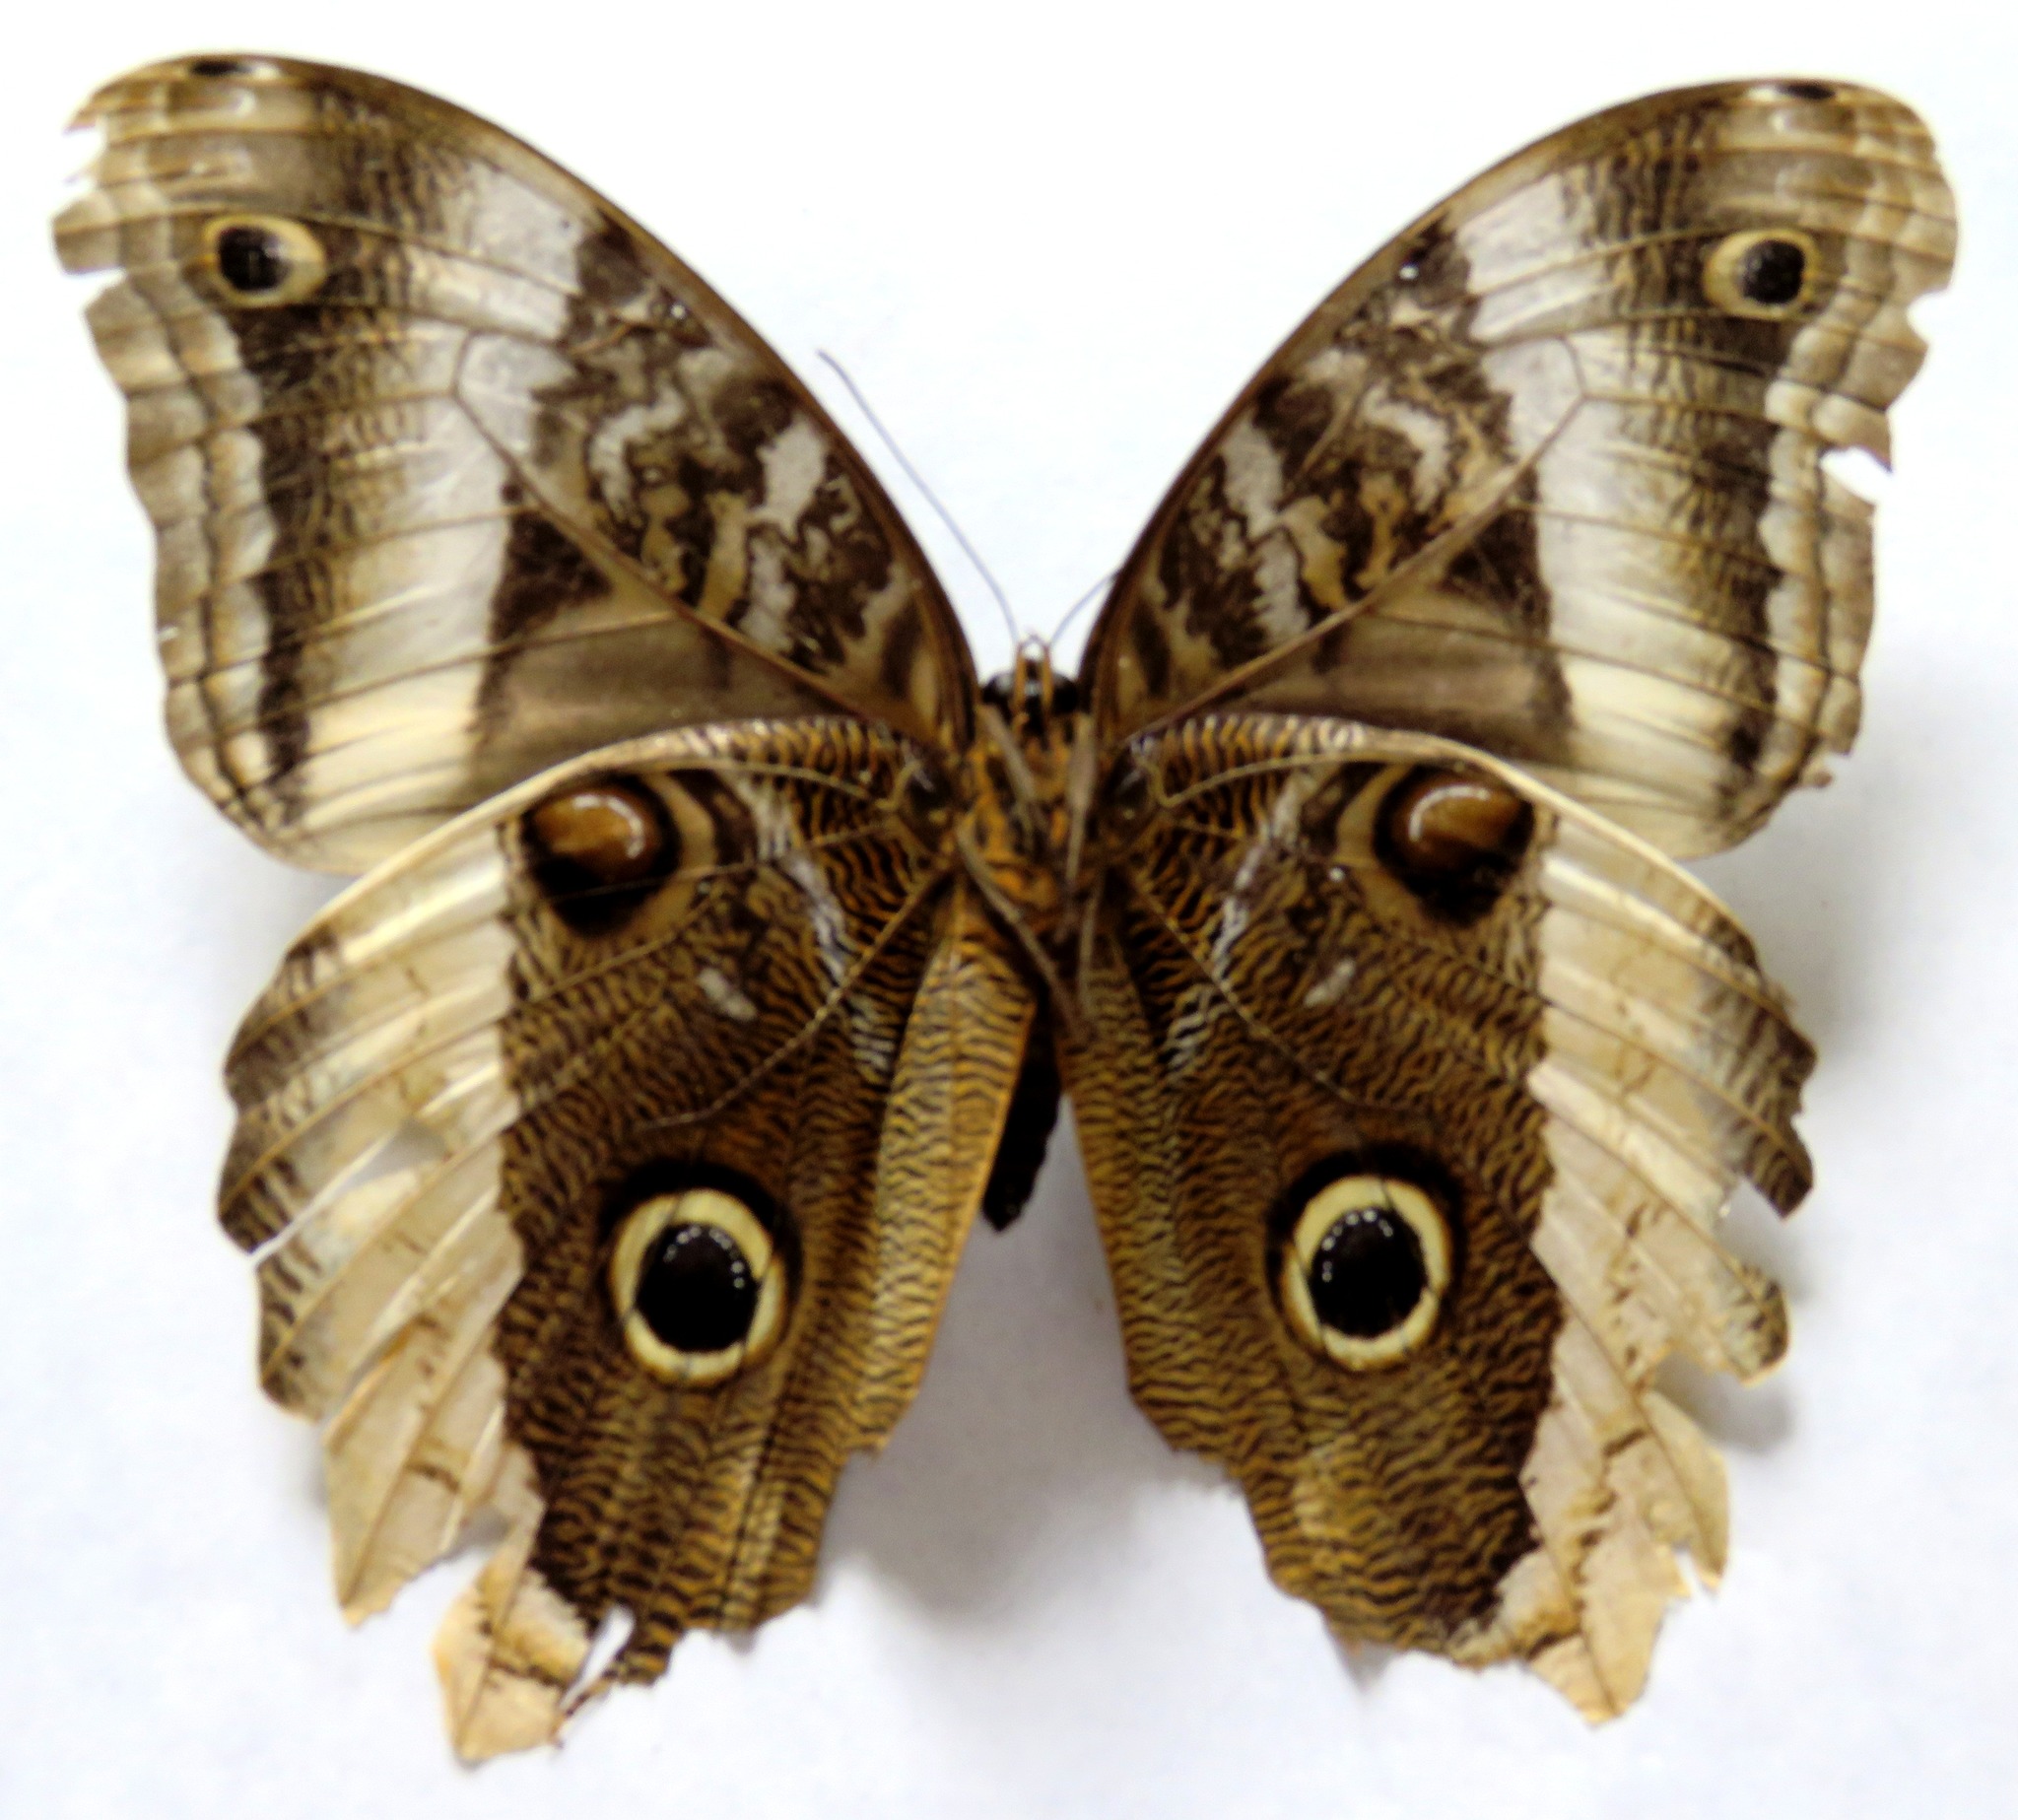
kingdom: Animalia
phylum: Arthropoda
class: Insecta
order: Lepidoptera
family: Nymphalidae
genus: Caligo
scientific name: Caligo atreus
